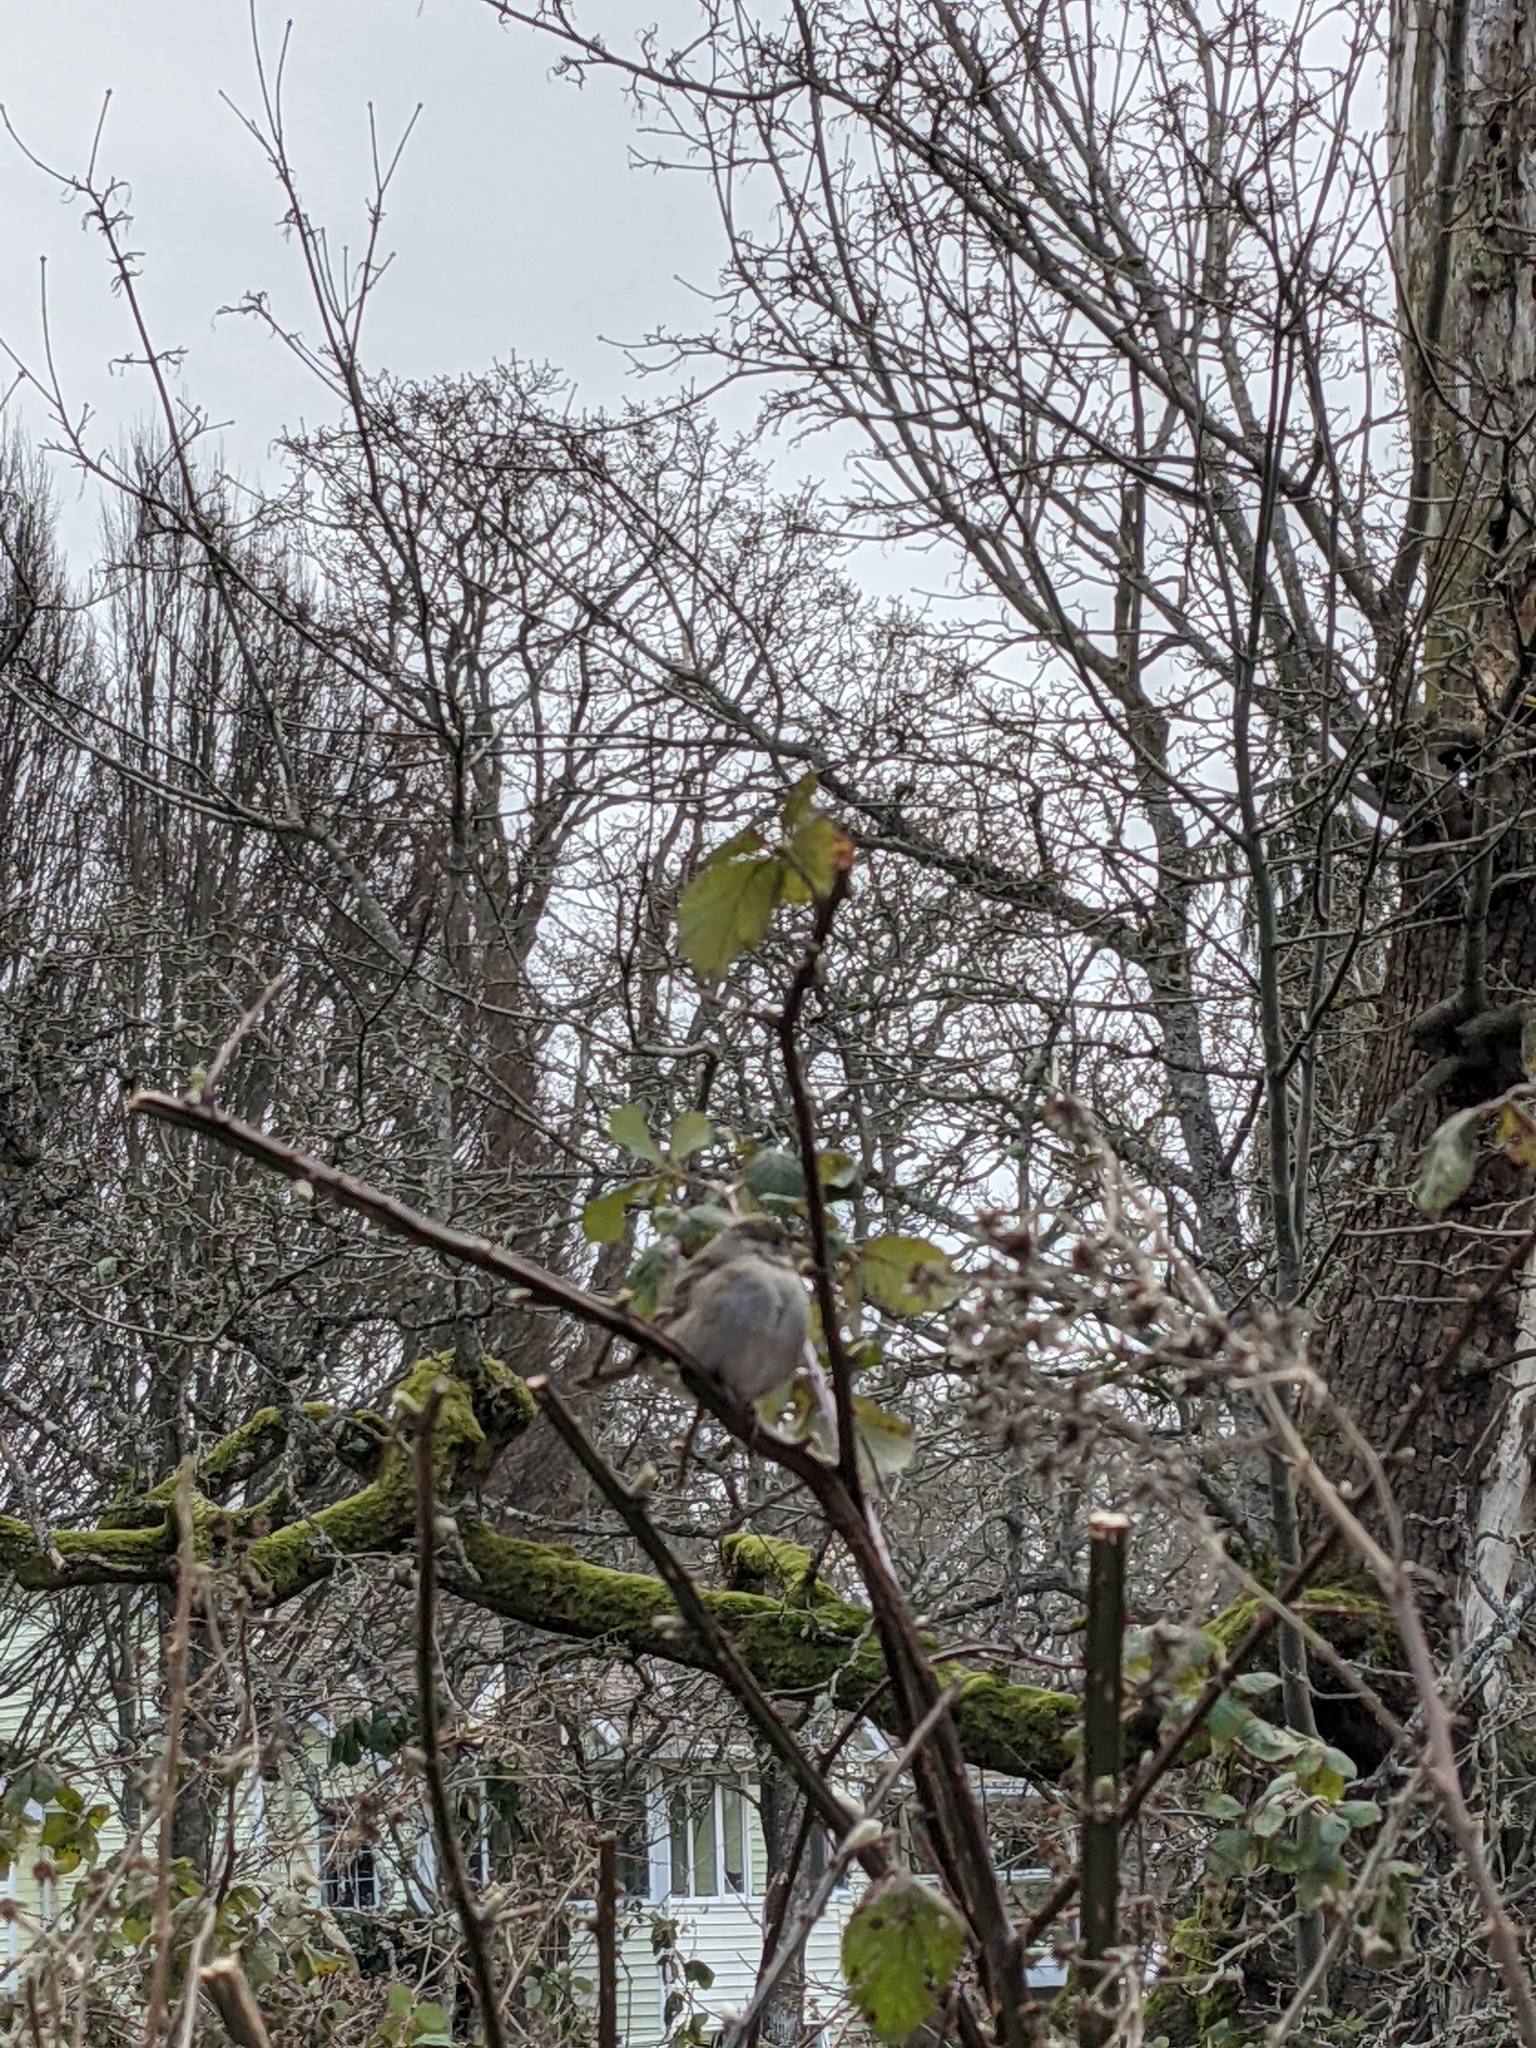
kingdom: Animalia
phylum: Chordata
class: Aves
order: Passeriformes
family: Passerellidae
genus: Zonotrichia
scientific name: Zonotrichia atricapilla
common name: Golden-crowned sparrow
